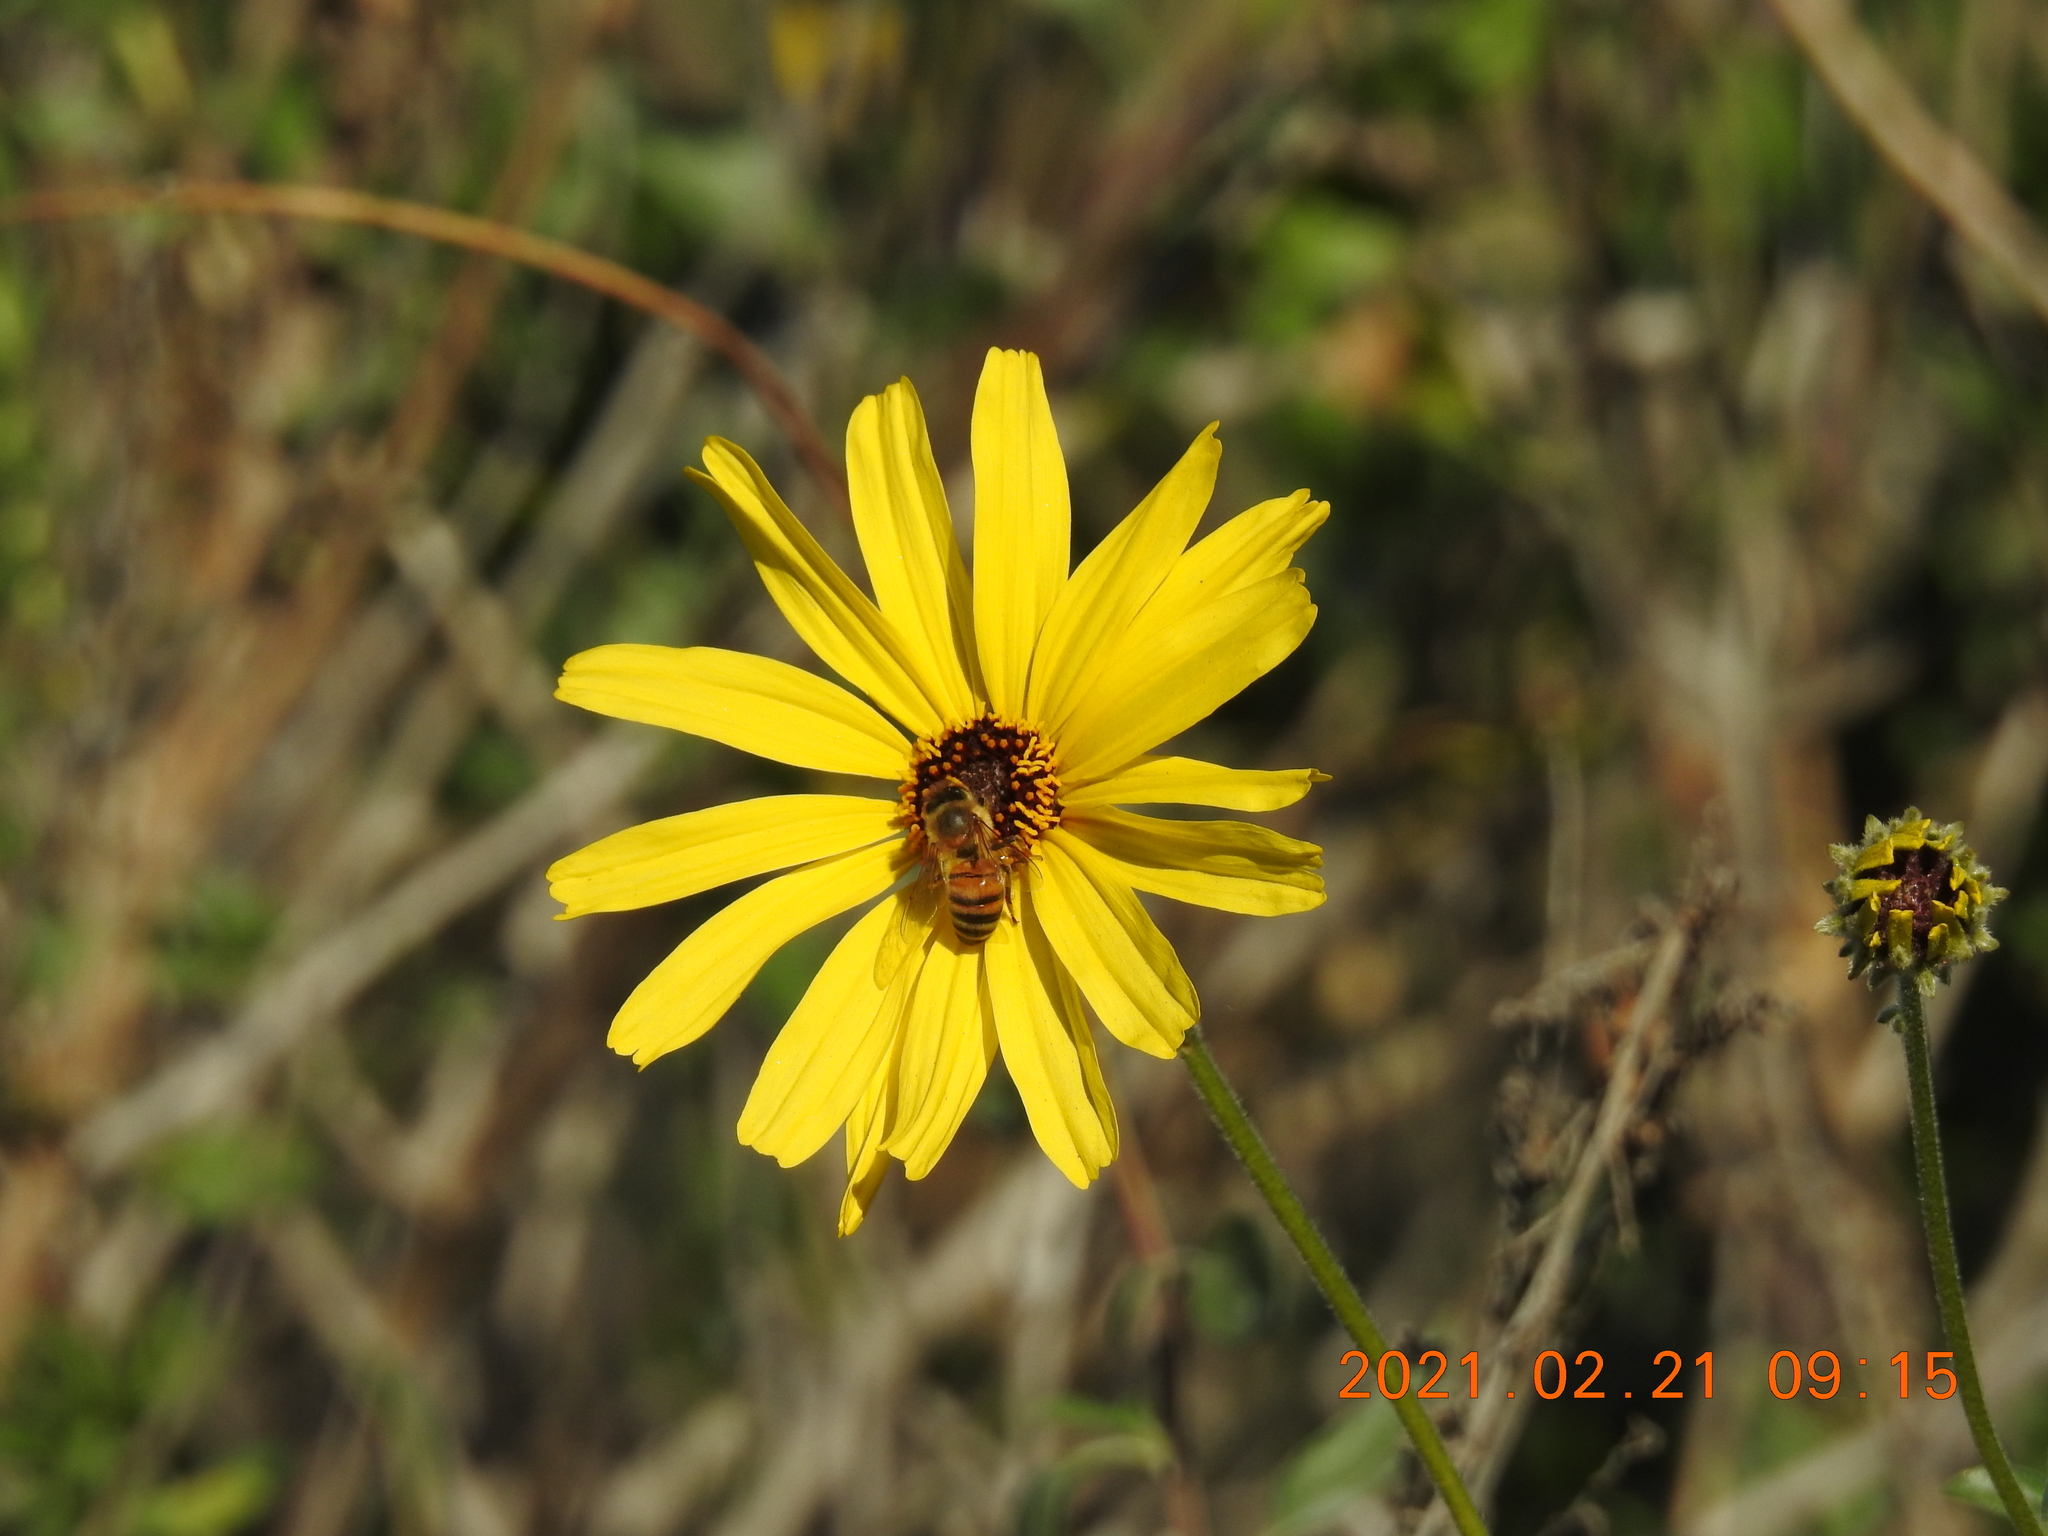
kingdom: Plantae
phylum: Tracheophyta
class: Magnoliopsida
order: Asterales
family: Asteraceae
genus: Encelia
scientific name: Encelia californica
